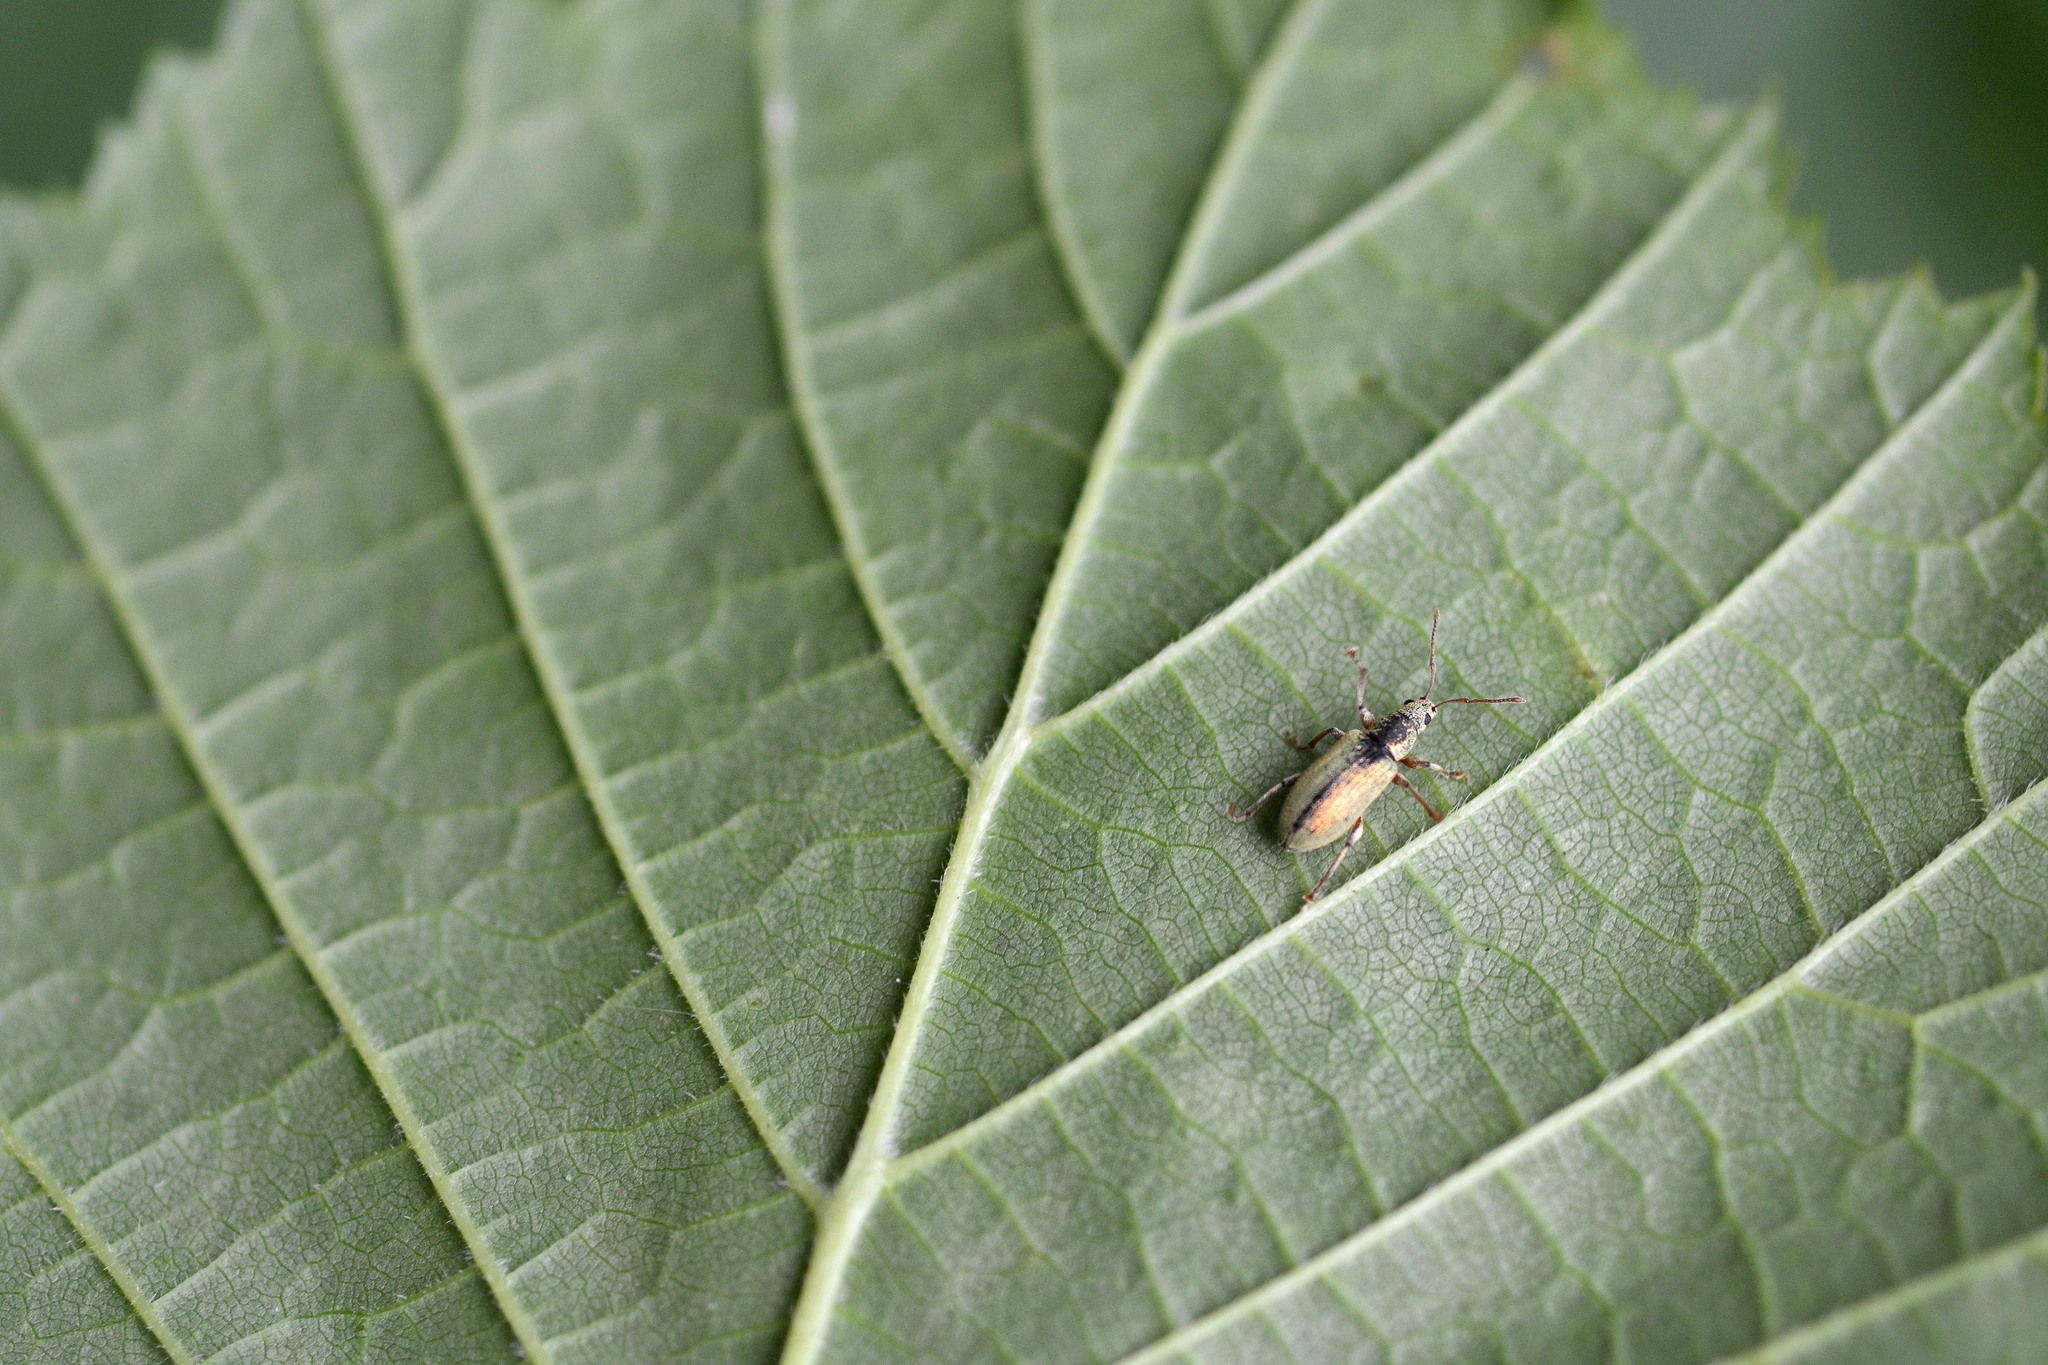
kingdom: Animalia
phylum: Arthropoda
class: Insecta
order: Coleoptera
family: Curculionidae
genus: Phyllobius
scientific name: Phyllobius argentatus
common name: Silver-green leaf weevil
